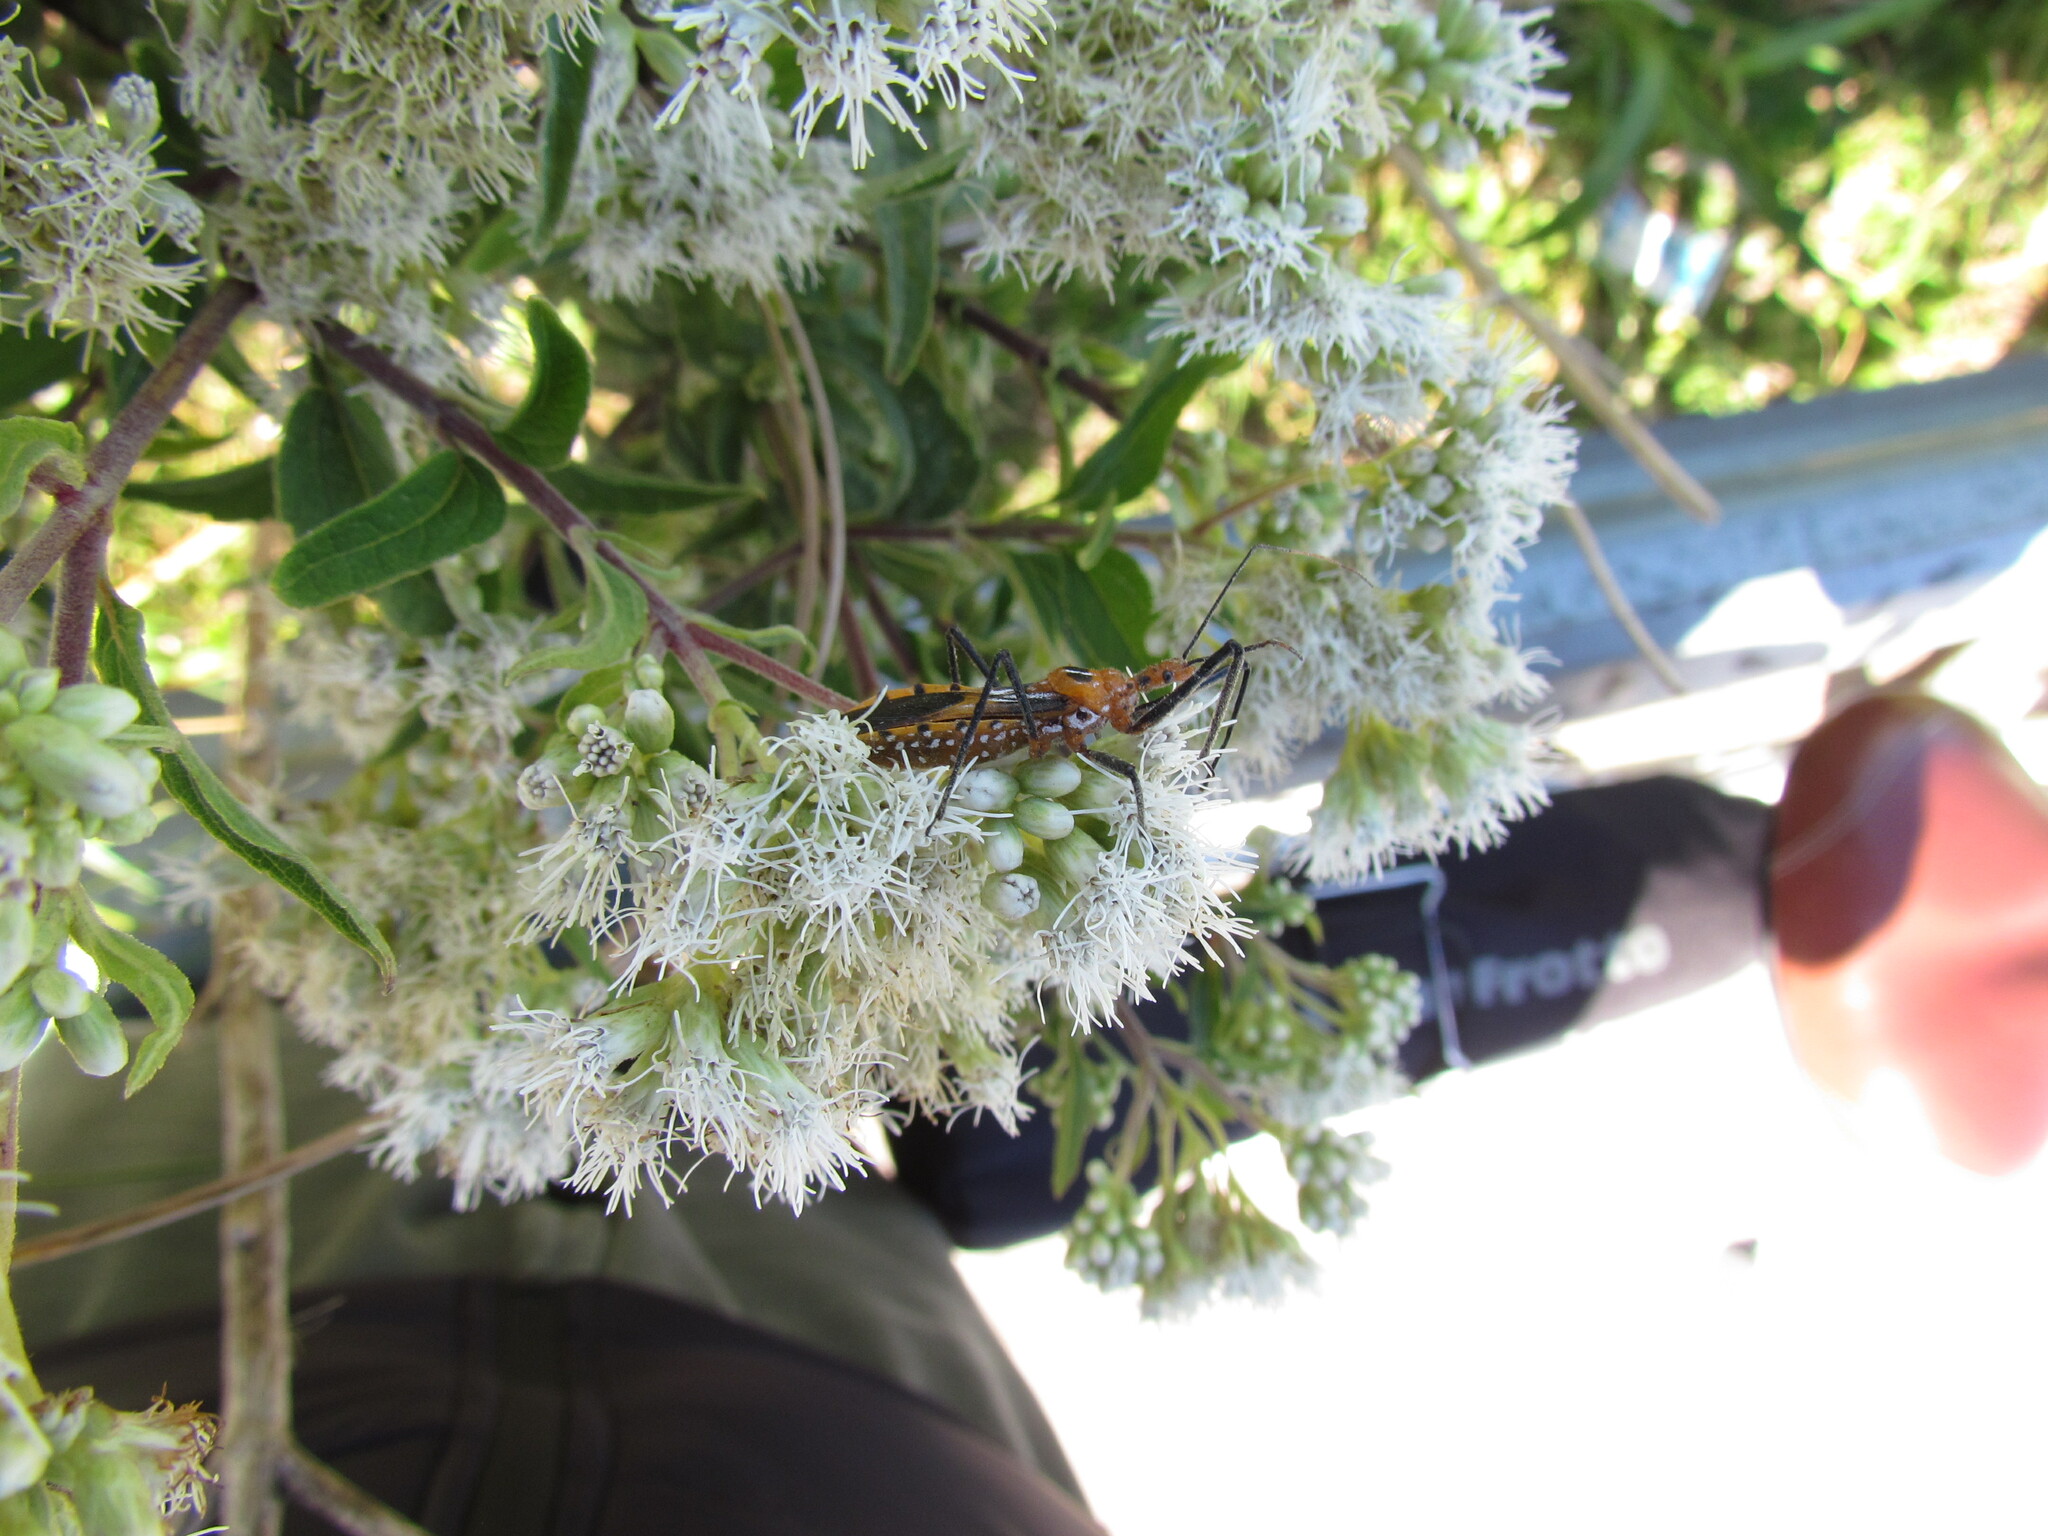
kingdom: Animalia
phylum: Arthropoda
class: Insecta
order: Hemiptera
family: Reduviidae
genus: Zelus
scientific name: Zelus leucogrammus
